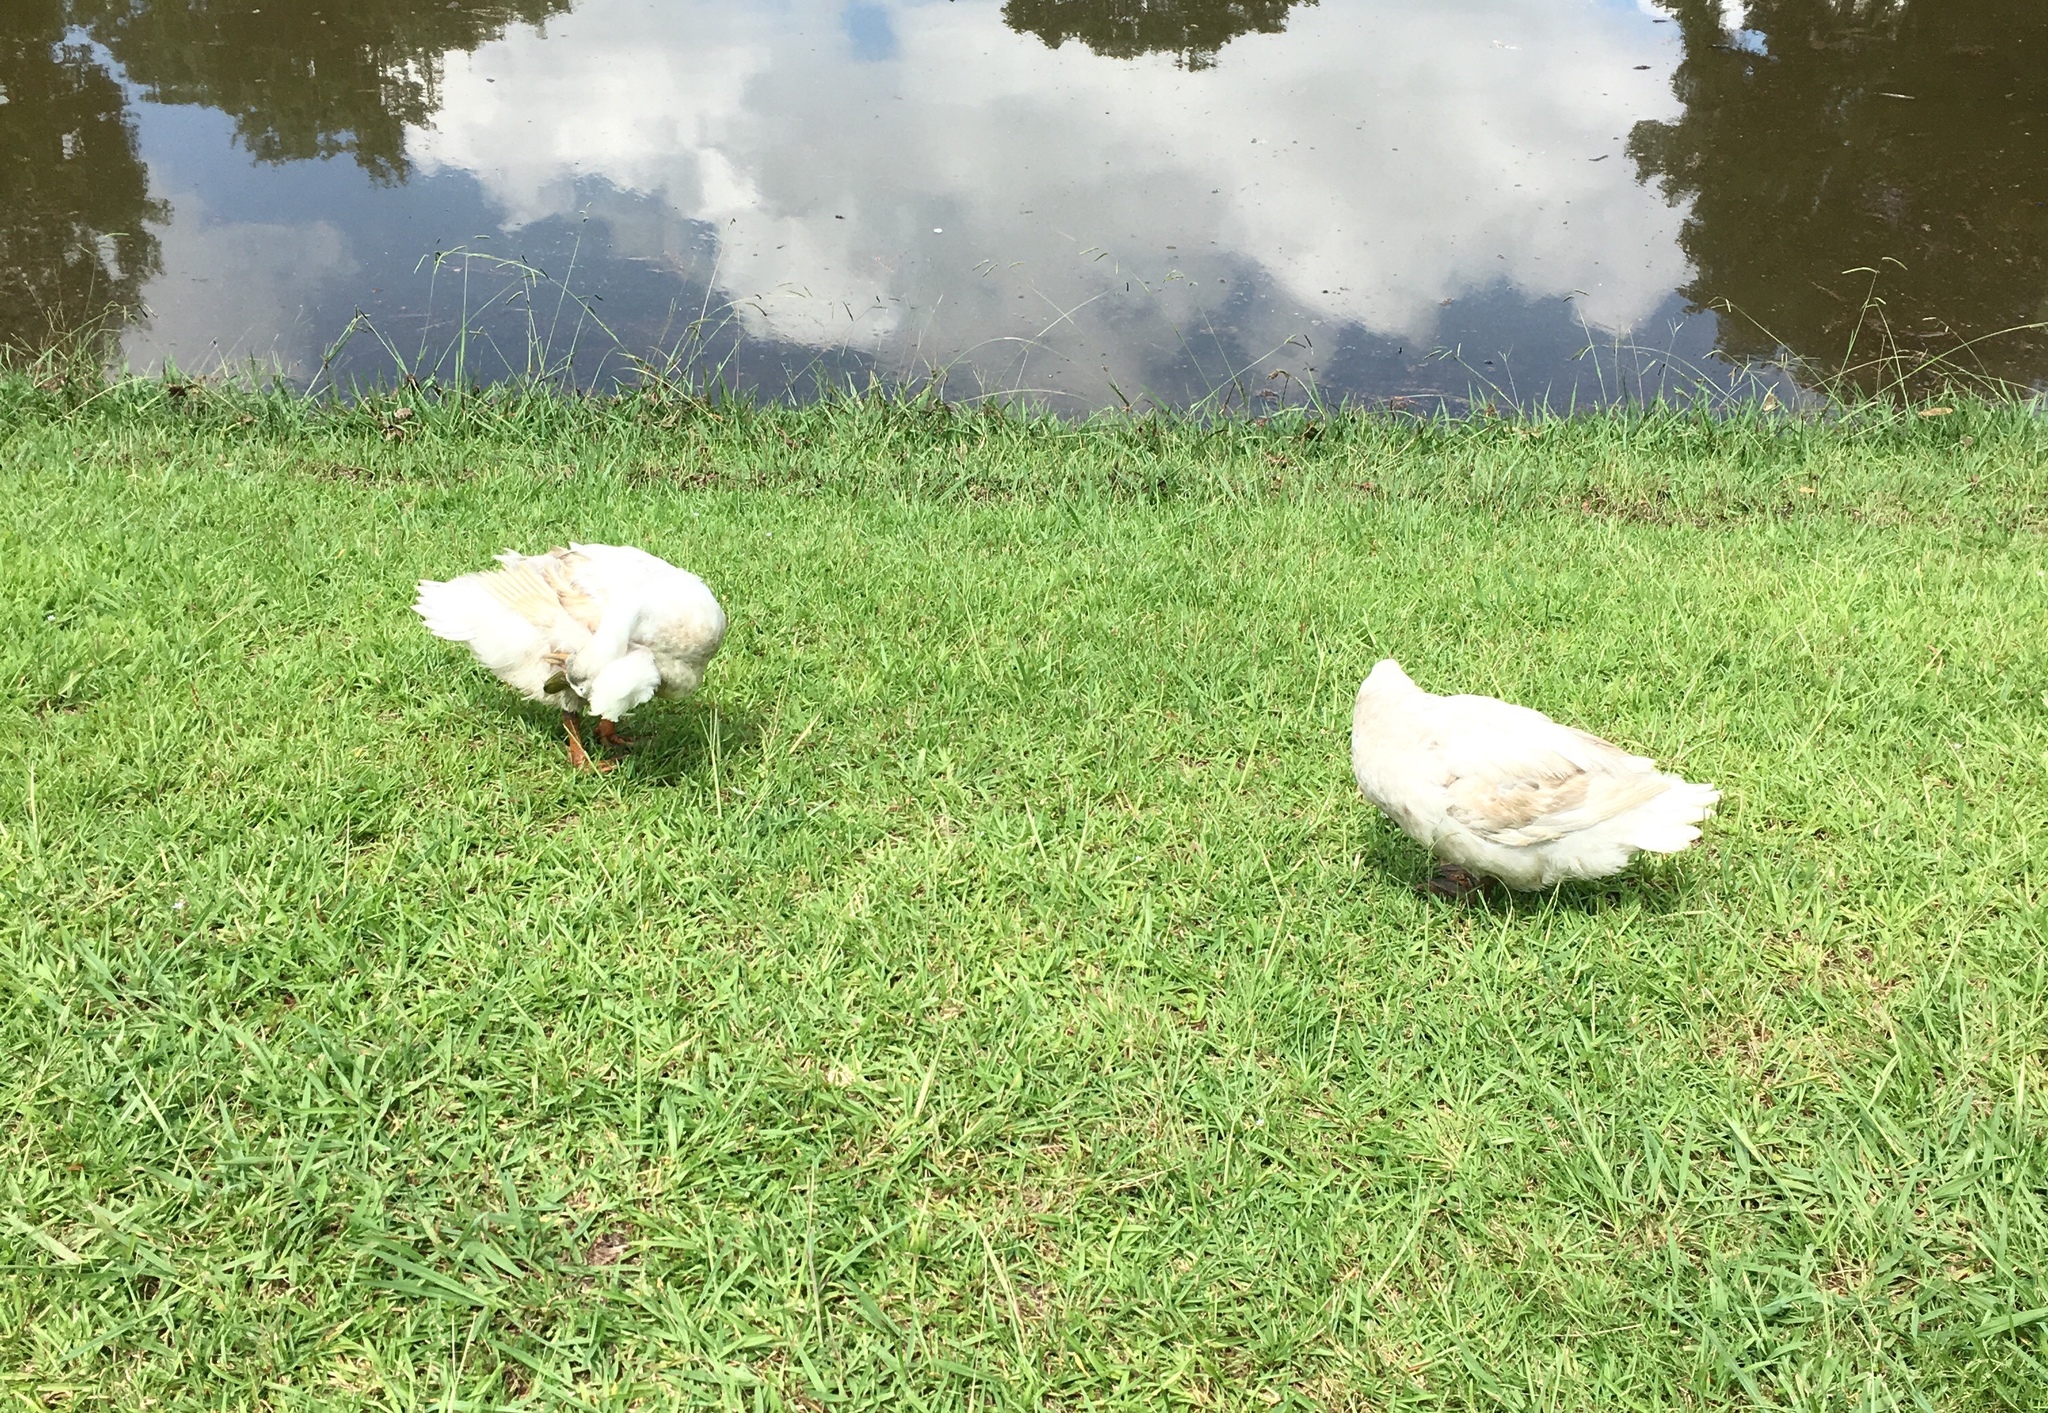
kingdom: Animalia
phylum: Chordata
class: Aves
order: Anseriformes
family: Anatidae
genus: Anas
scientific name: Anas platyrhynchos
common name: Mallard
